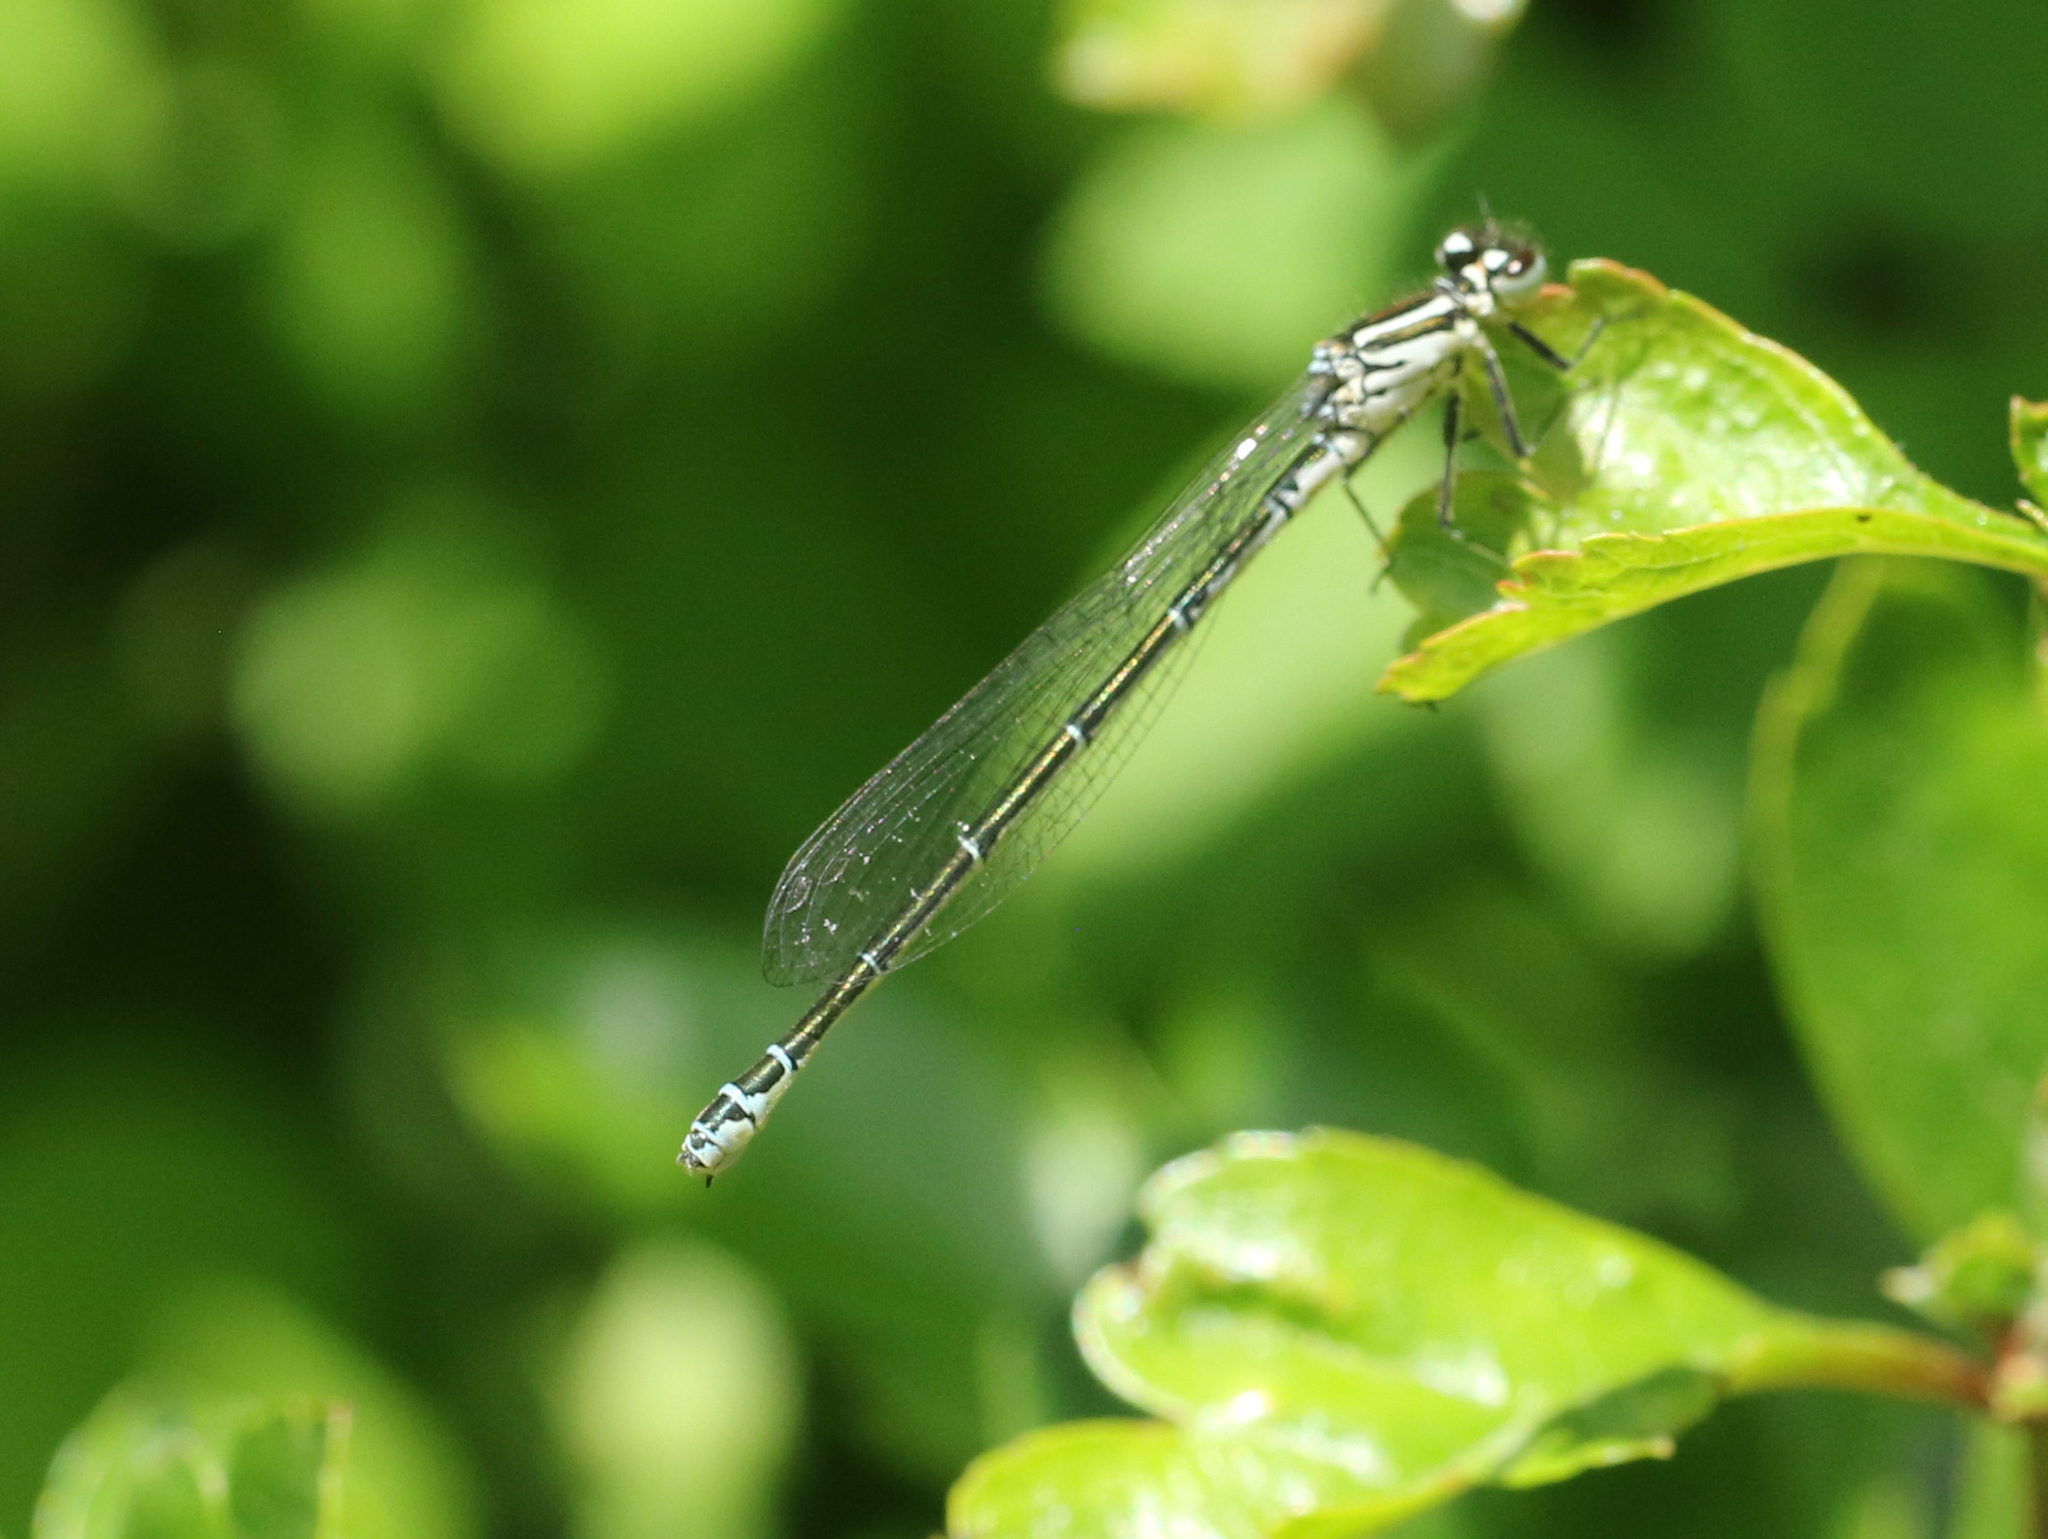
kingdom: Animalia
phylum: Arthropoda
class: Insecta
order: Odonata
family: Coenagrionidae
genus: Coenagrion
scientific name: Coenagrion puella
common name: Azure damselfly
